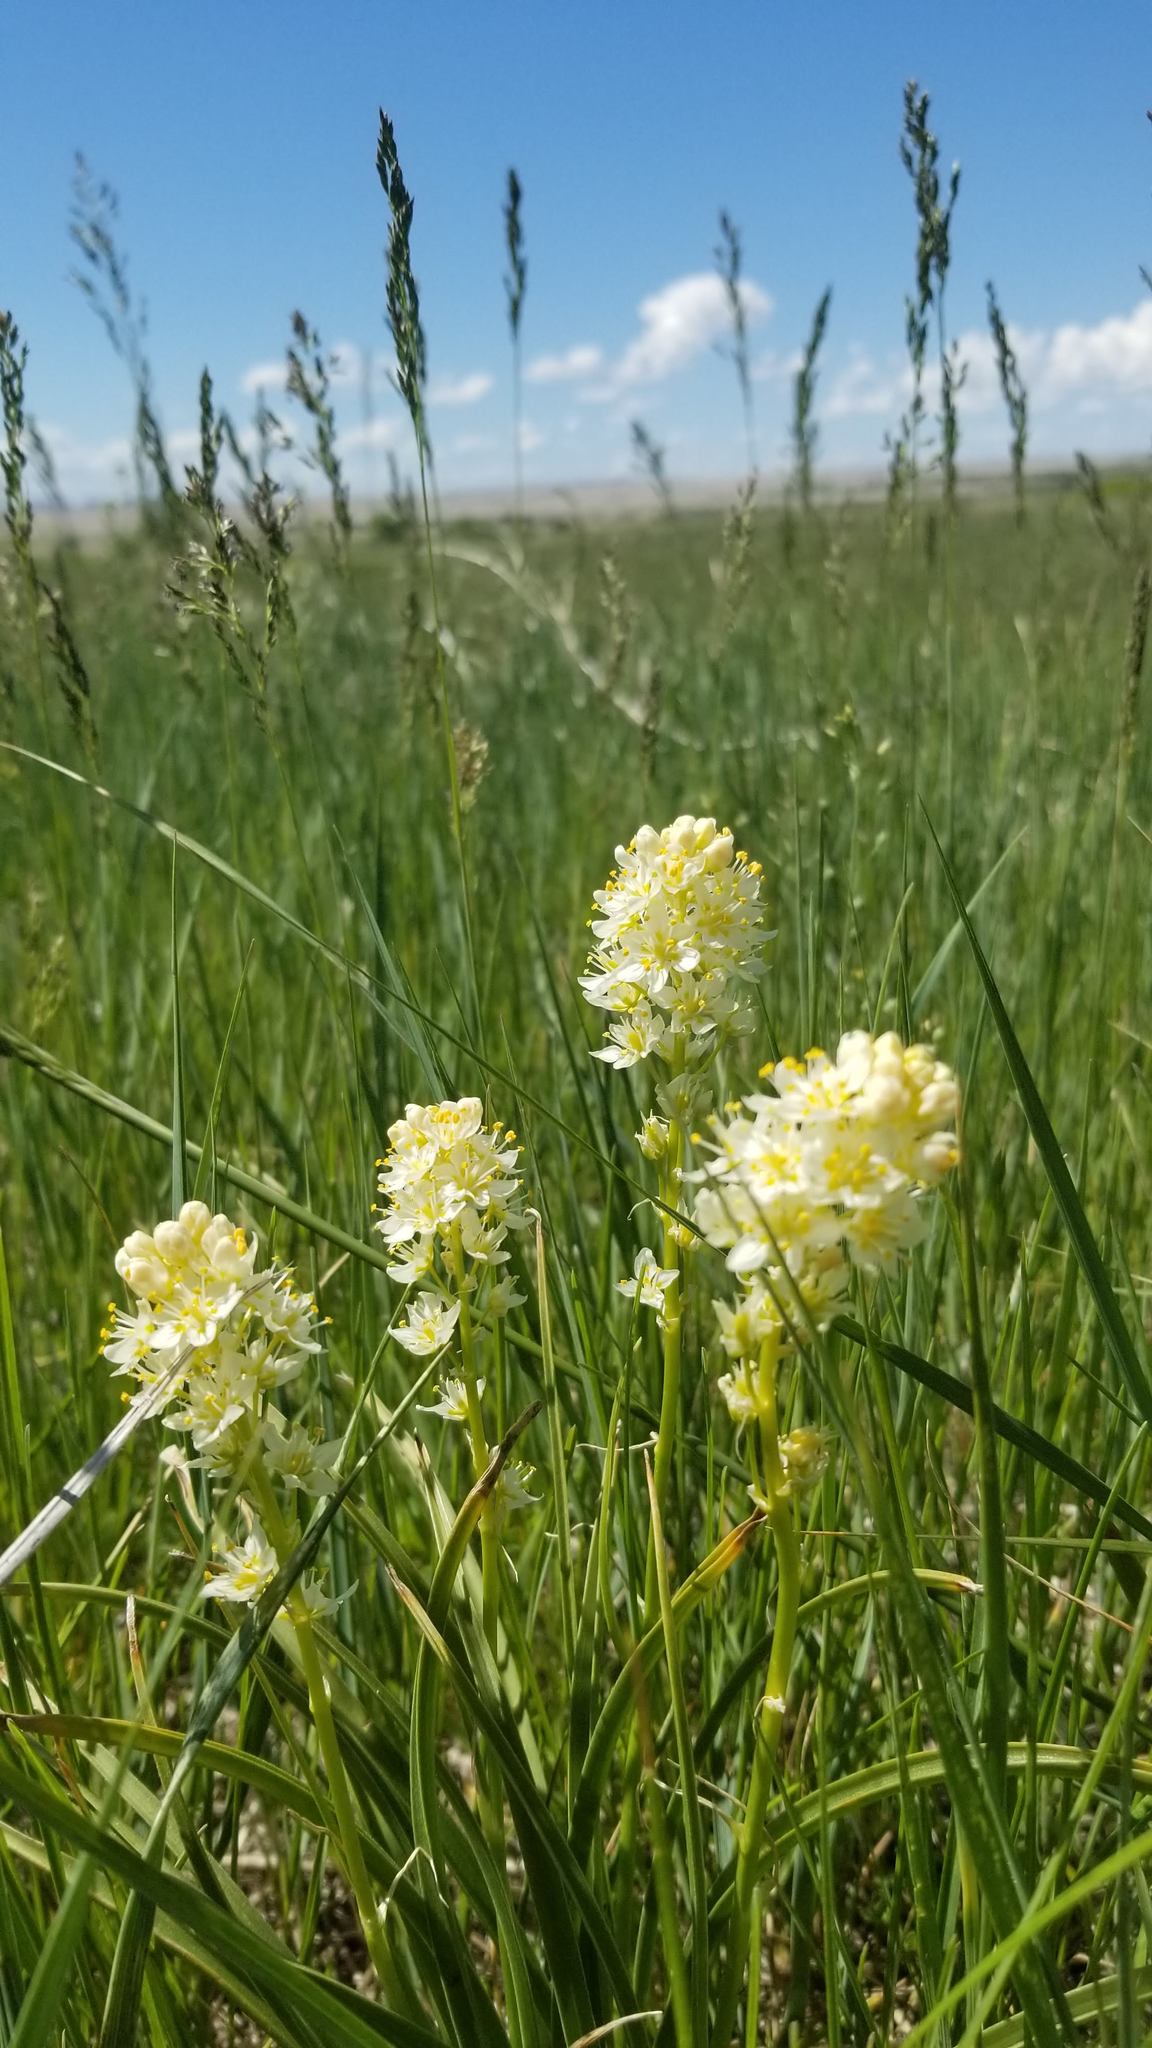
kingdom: Plantae
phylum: Tracheophyta
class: Liliopsida
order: Liliales
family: Melanthiaceae
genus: Toxicoscordion
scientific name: Toxicoscordion venenosum
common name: Meadow death camas
